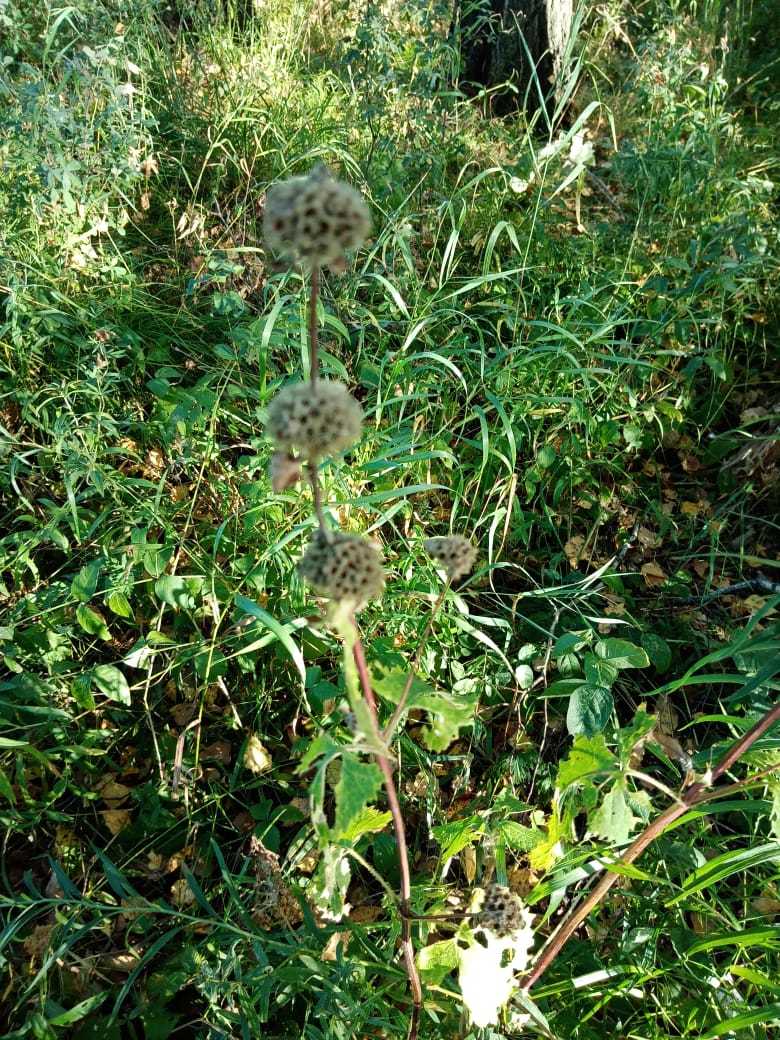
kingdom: Plantae
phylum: Tracheophyta
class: Magnoliopsida
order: Lamiales
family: Lamiaceae
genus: Phlomoides
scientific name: Phlomoides tuberosa
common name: Tuberous jerusalem sage
